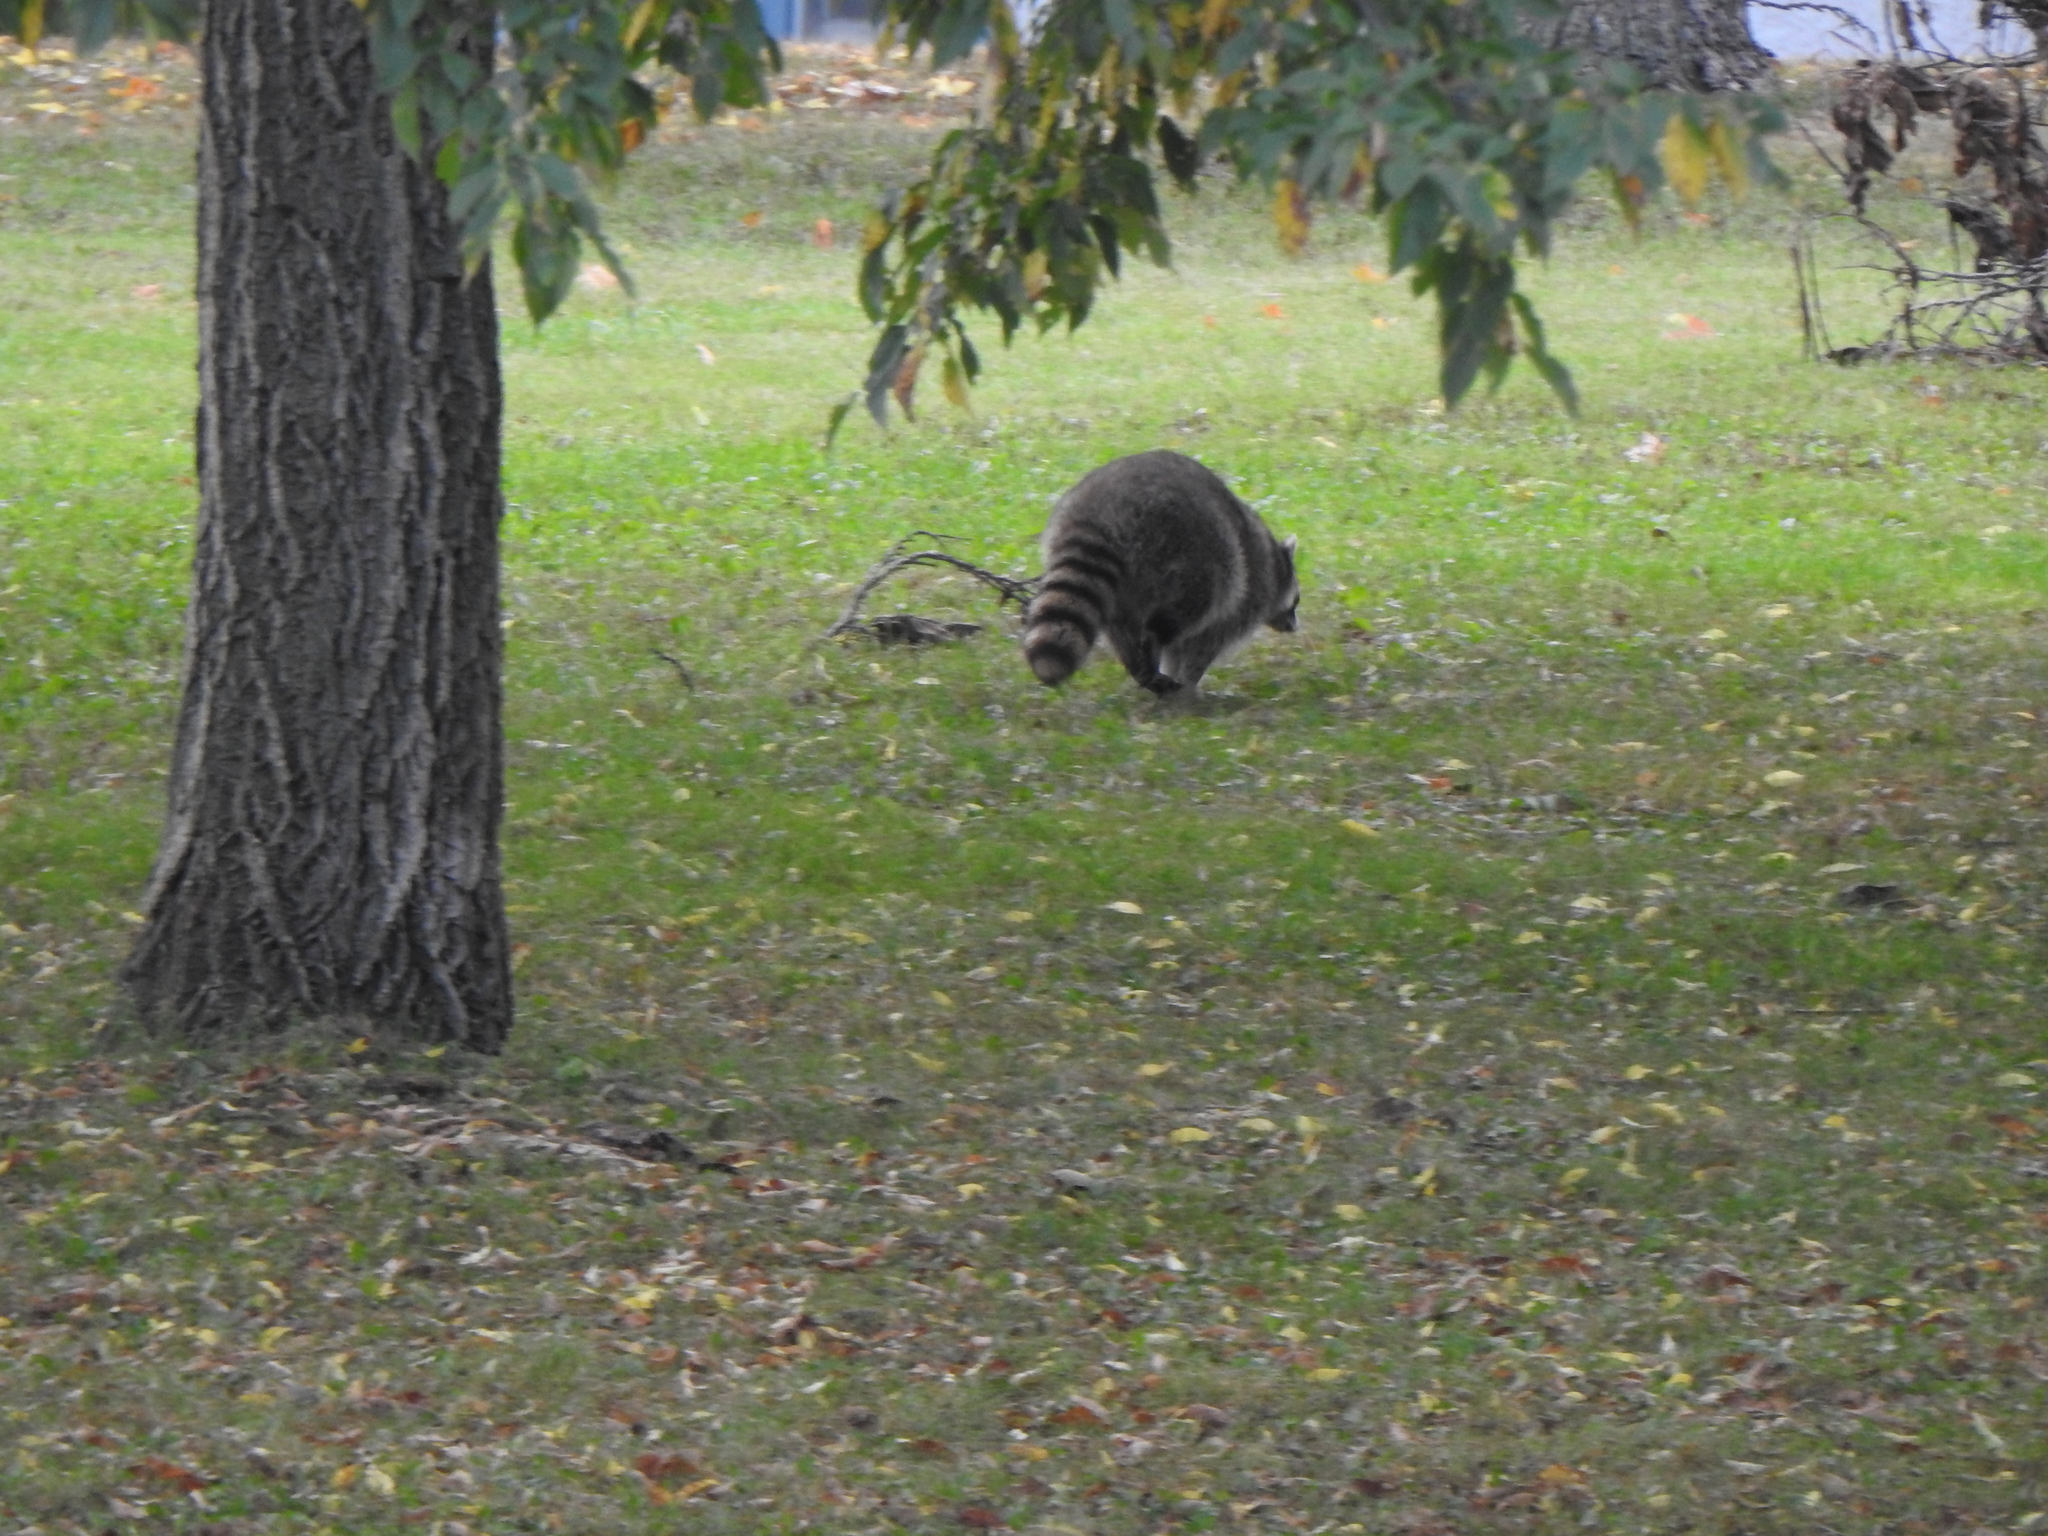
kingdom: Animalia
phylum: Chordata
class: Mammalia
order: Carnivora
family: Procyonidae
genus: Procyon
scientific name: Procyon lotor
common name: Raccoon
